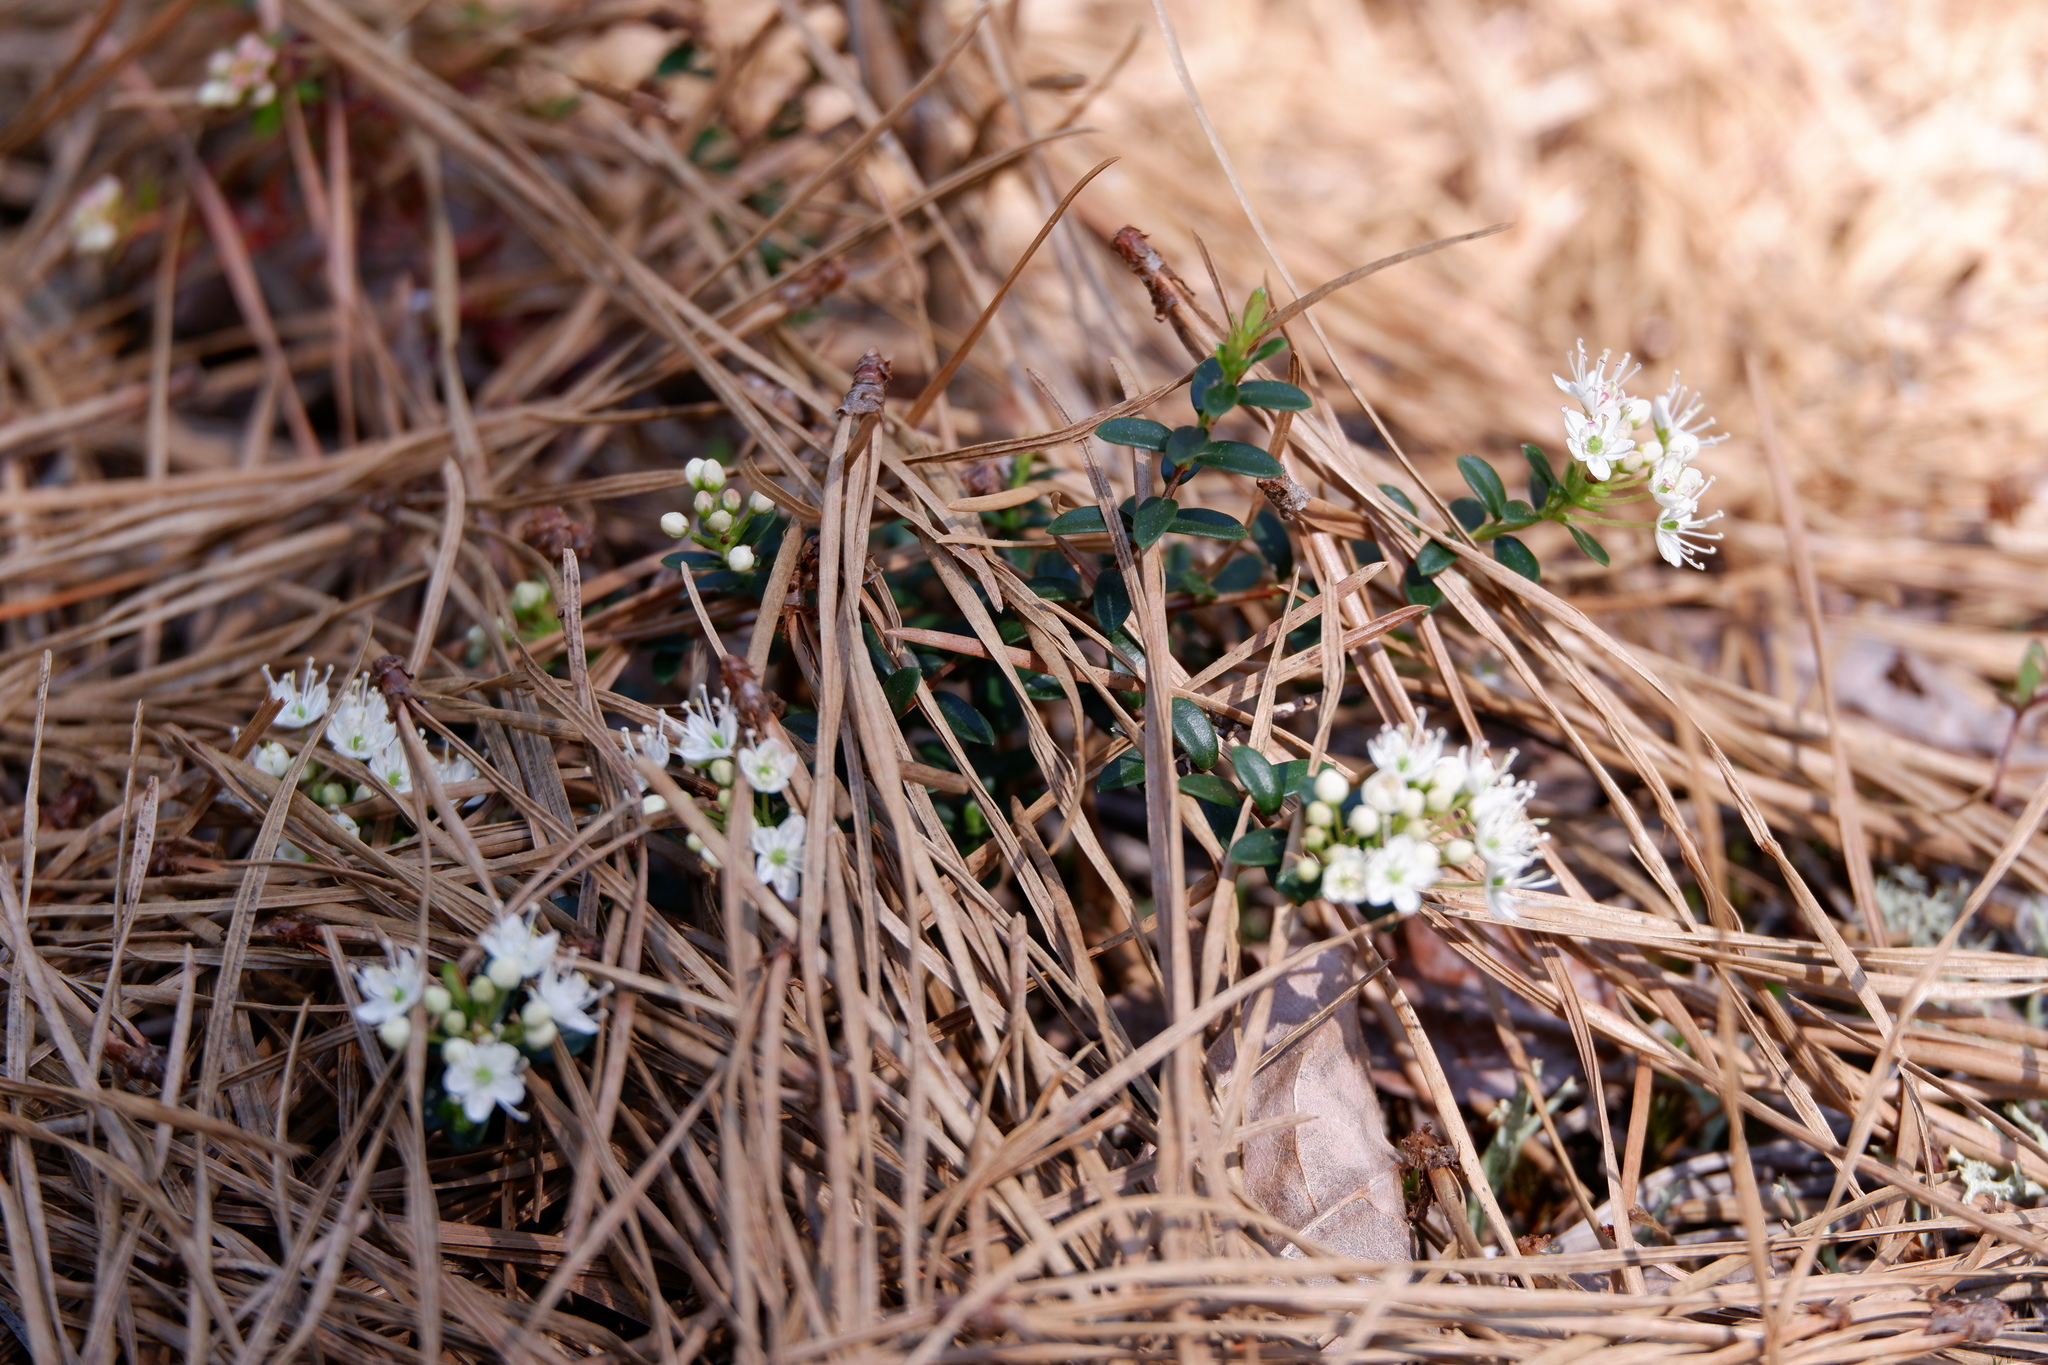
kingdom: Plantae
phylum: Tracheophyta
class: Magnoliopsida
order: Ericales
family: Ericaceae
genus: Kalmia
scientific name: Kalmia buxifolia
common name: Sandmyrtle
